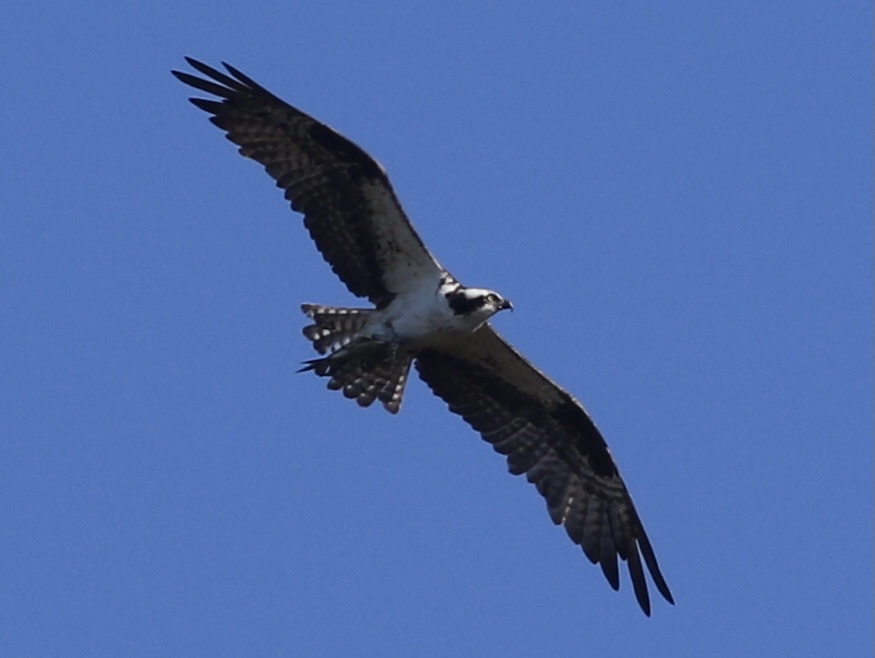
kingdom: Animalia
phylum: Chordata
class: Aves
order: Accipitriformes
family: Pandionidae
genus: Pandion
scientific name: Pandion haliaetus
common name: Osprey
